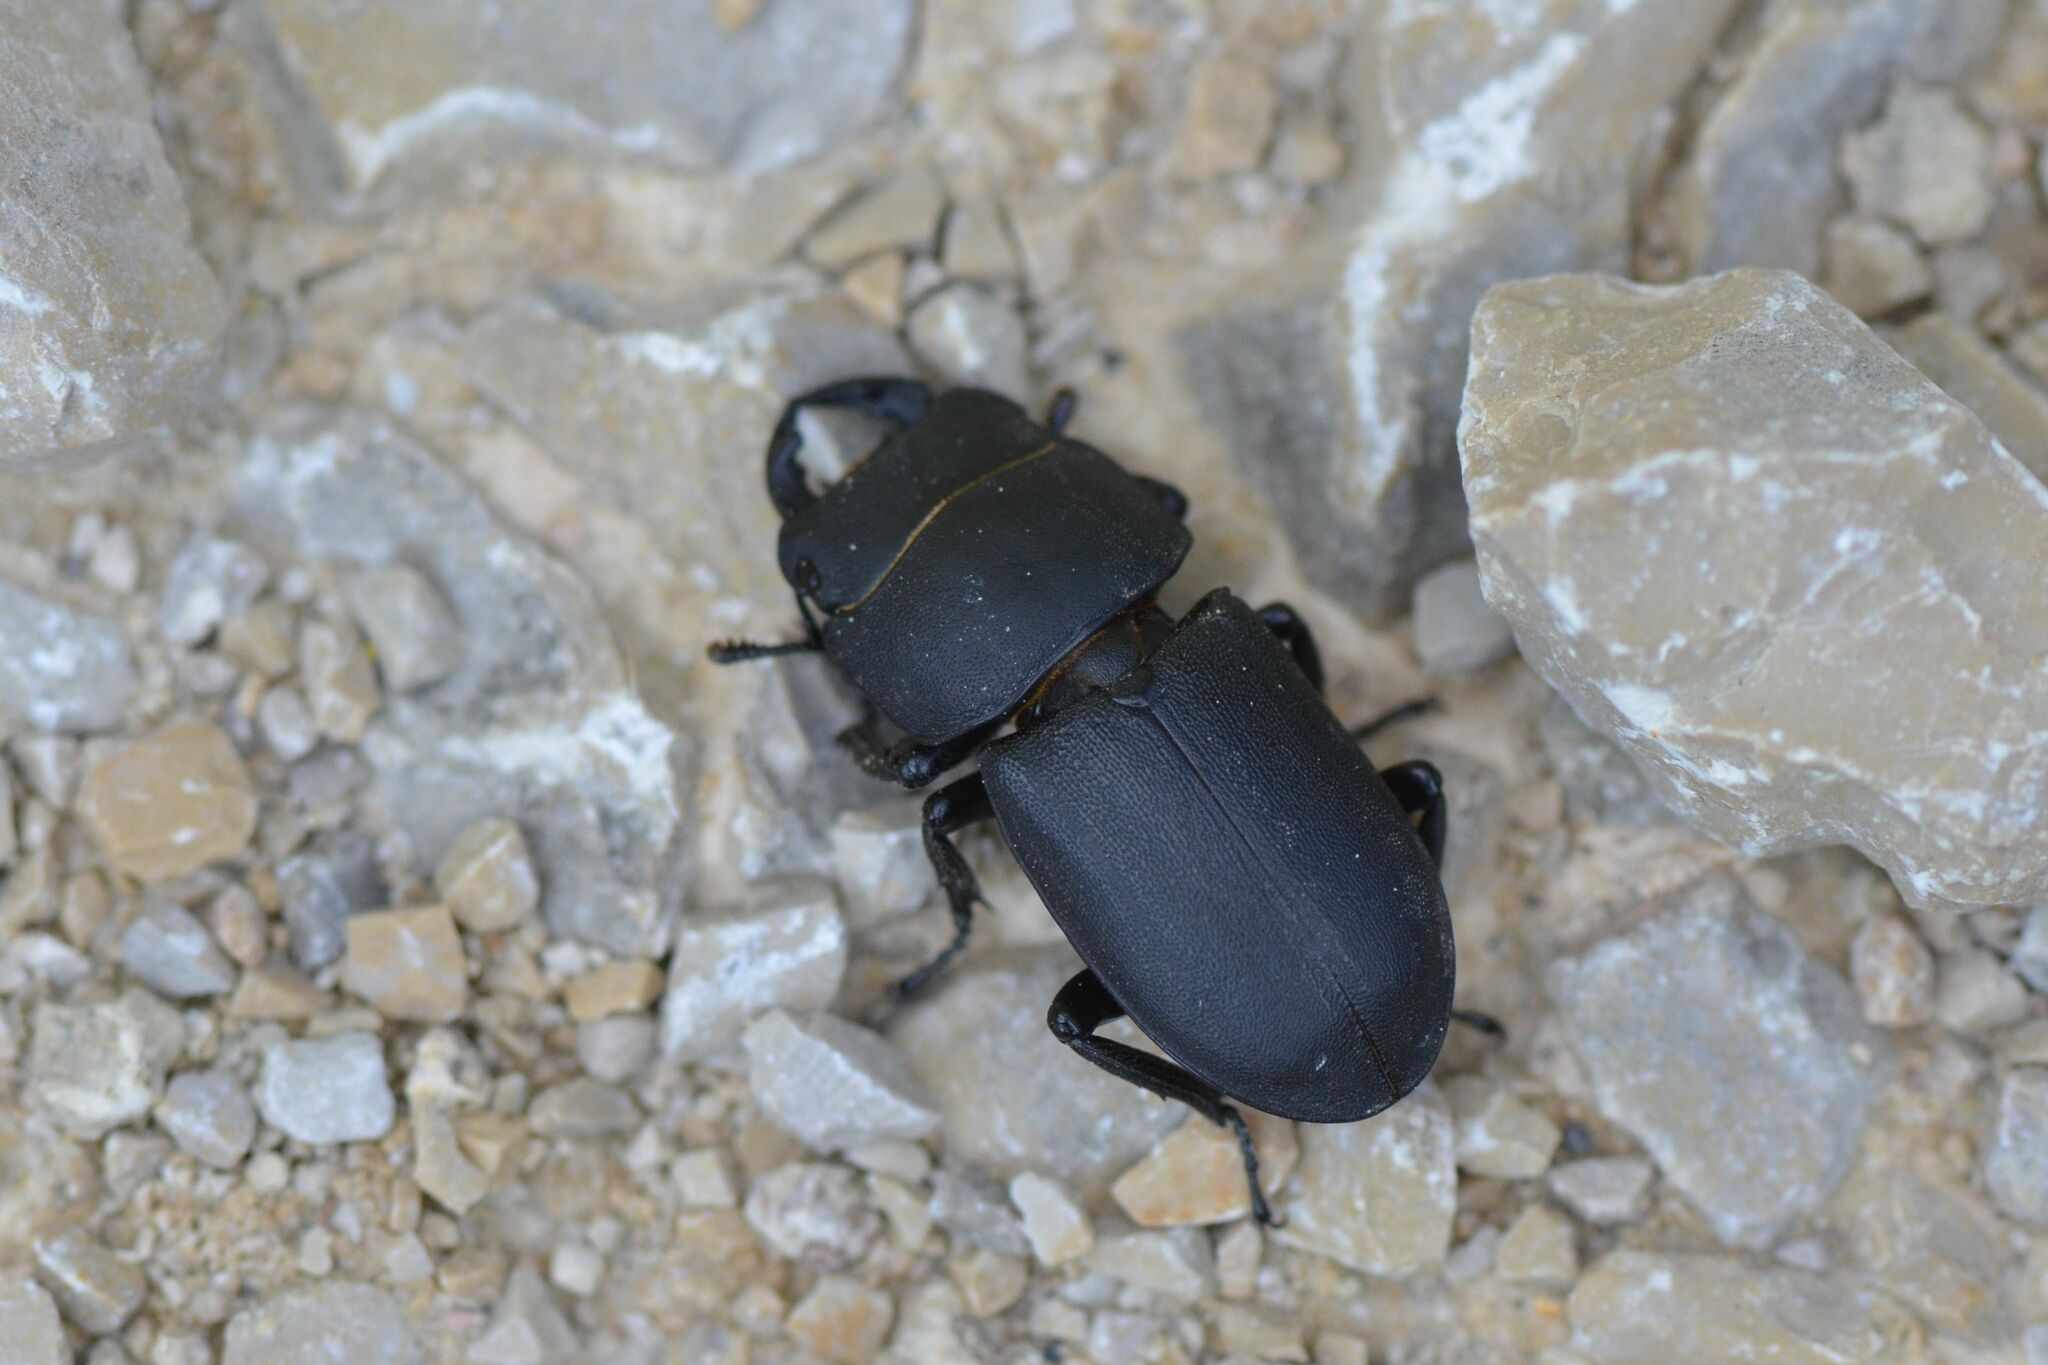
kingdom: Animalia
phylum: Arthropoda
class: Insecta
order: Coleoptera
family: Lucanidae
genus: Dorcus
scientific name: Dorcus parallelipipedus
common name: Lesser stag beetle
